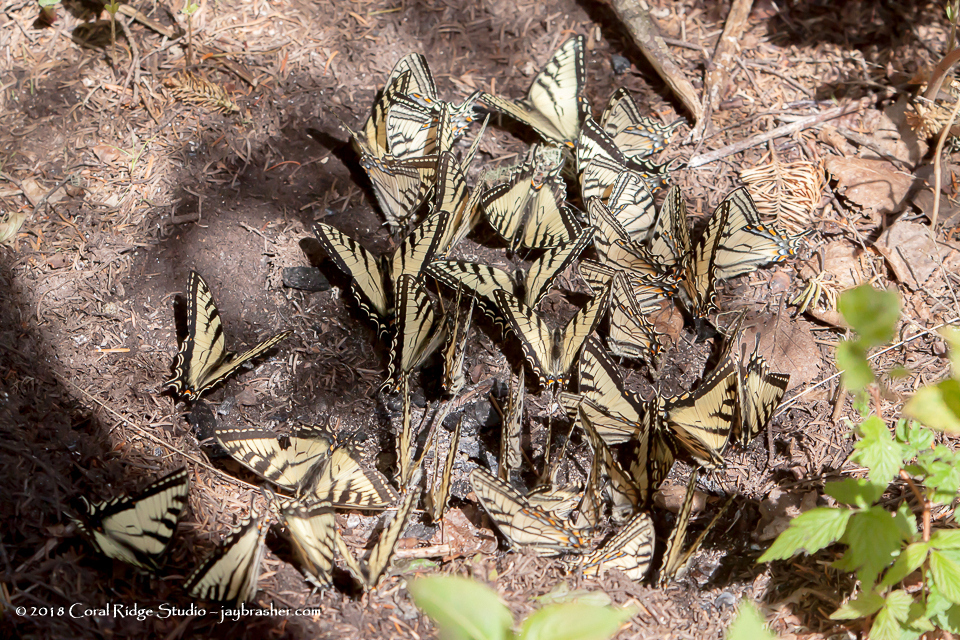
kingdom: Animalia
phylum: Arthropoda
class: Insecta
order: Lepidoptera
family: Papilionidae
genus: Papilio
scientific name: Papilio canadensis
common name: Canadian tiger swallowtail
